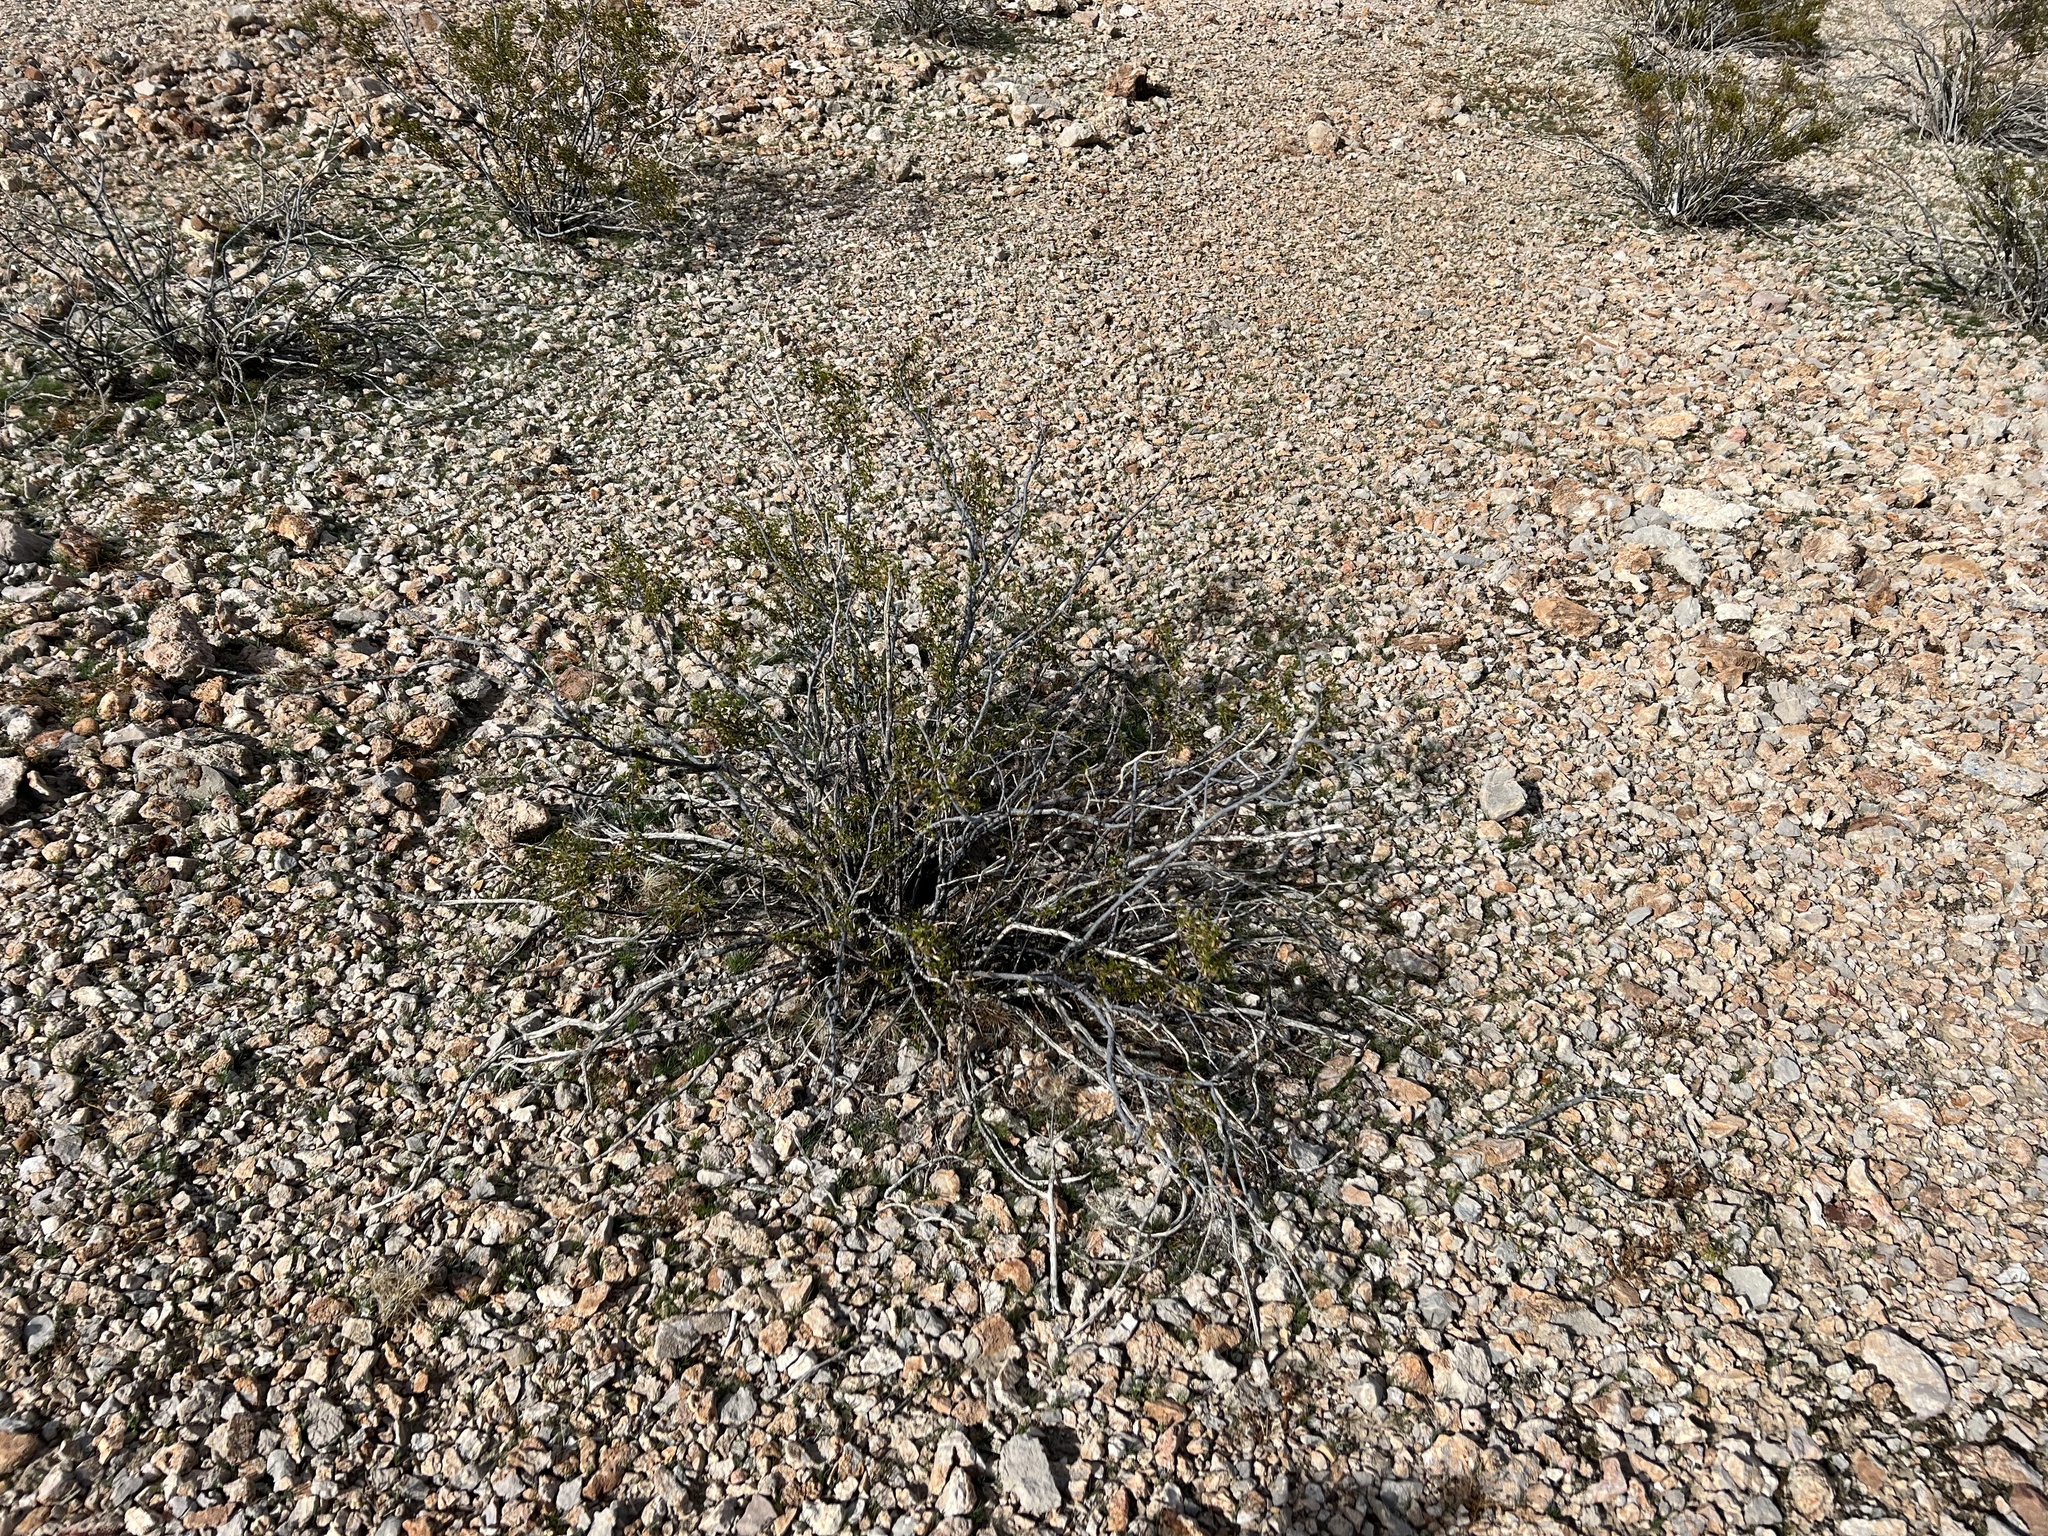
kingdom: Plantae
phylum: Tracheophyta
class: Magnoliopsida
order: Zygophyllales
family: Zygophyllaceae
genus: Larrea
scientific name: Larrea tridentata
